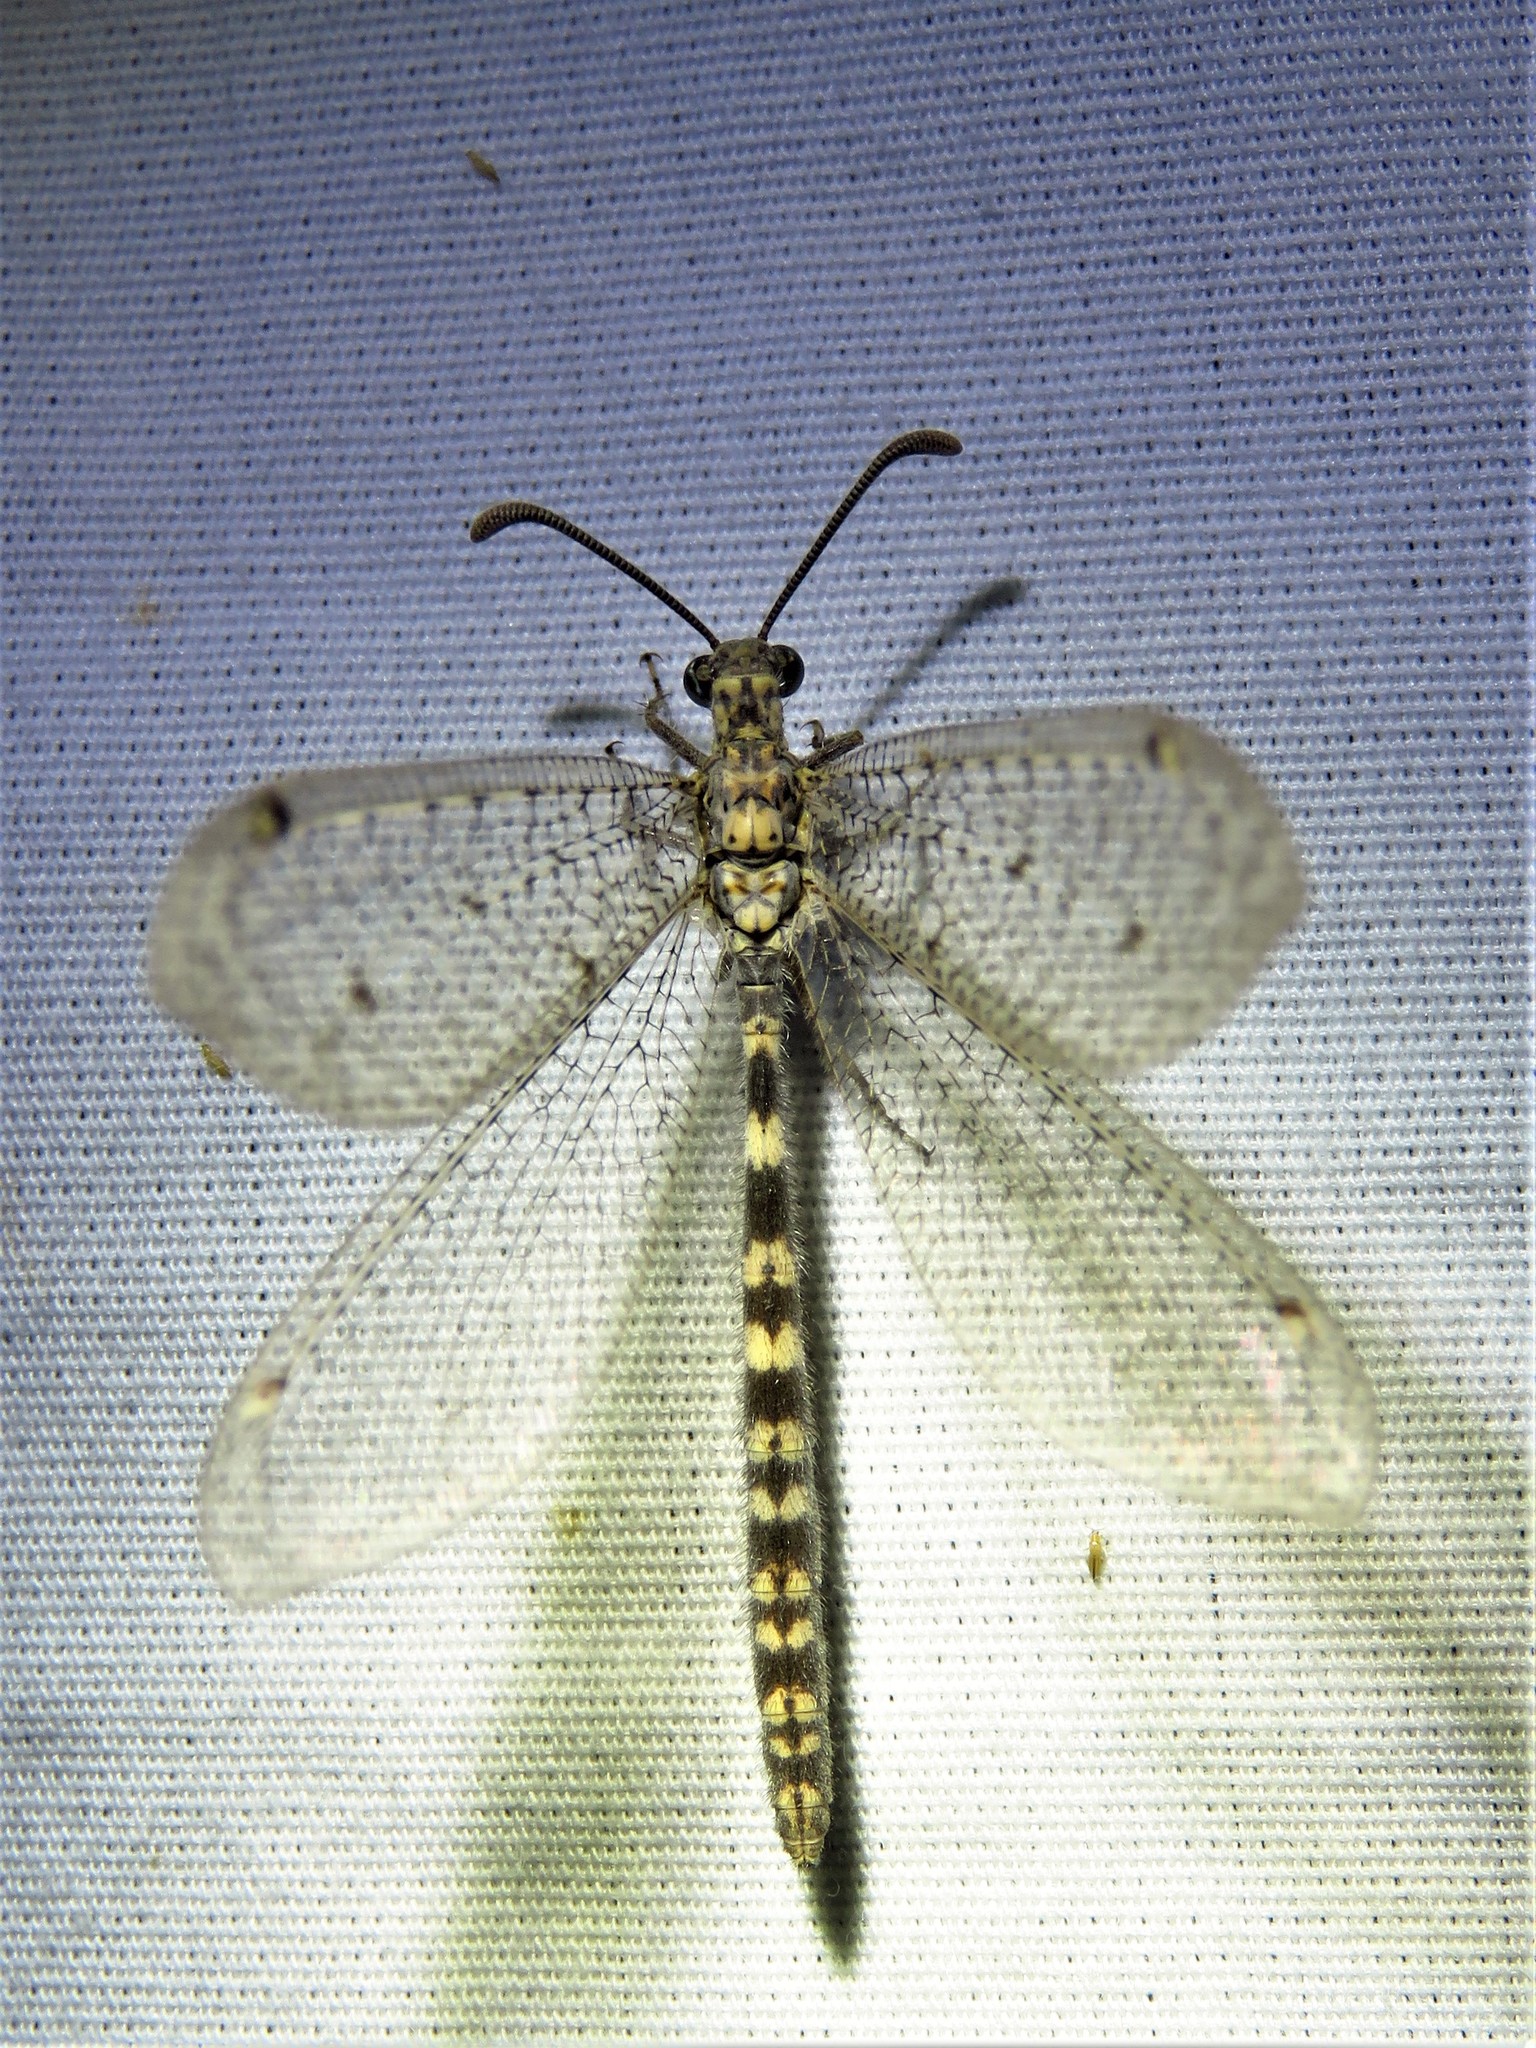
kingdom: Animalia
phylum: Arthropoda
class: Insecta
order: Neuroptera
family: Myrmeleontidae
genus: Brachynemurus
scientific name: Brachynemurus sackeni
